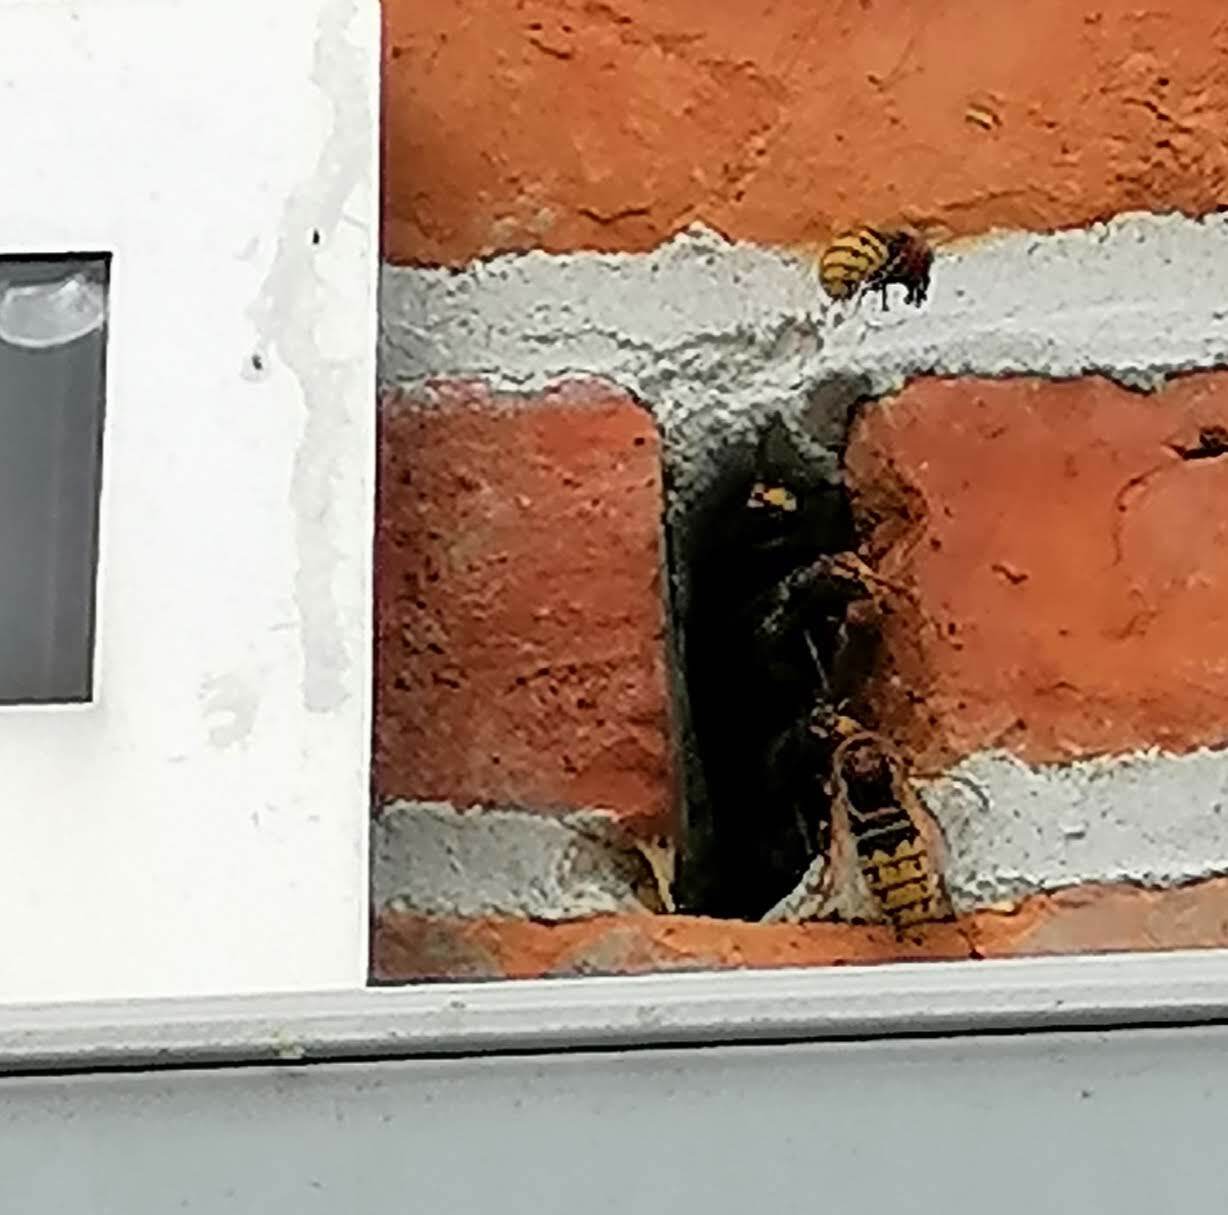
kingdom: Animalia
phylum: Arthropoda
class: Insecta
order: Hymenoptera
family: Vespidae
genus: Vespa
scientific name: Vespa crabro
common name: Hornet
